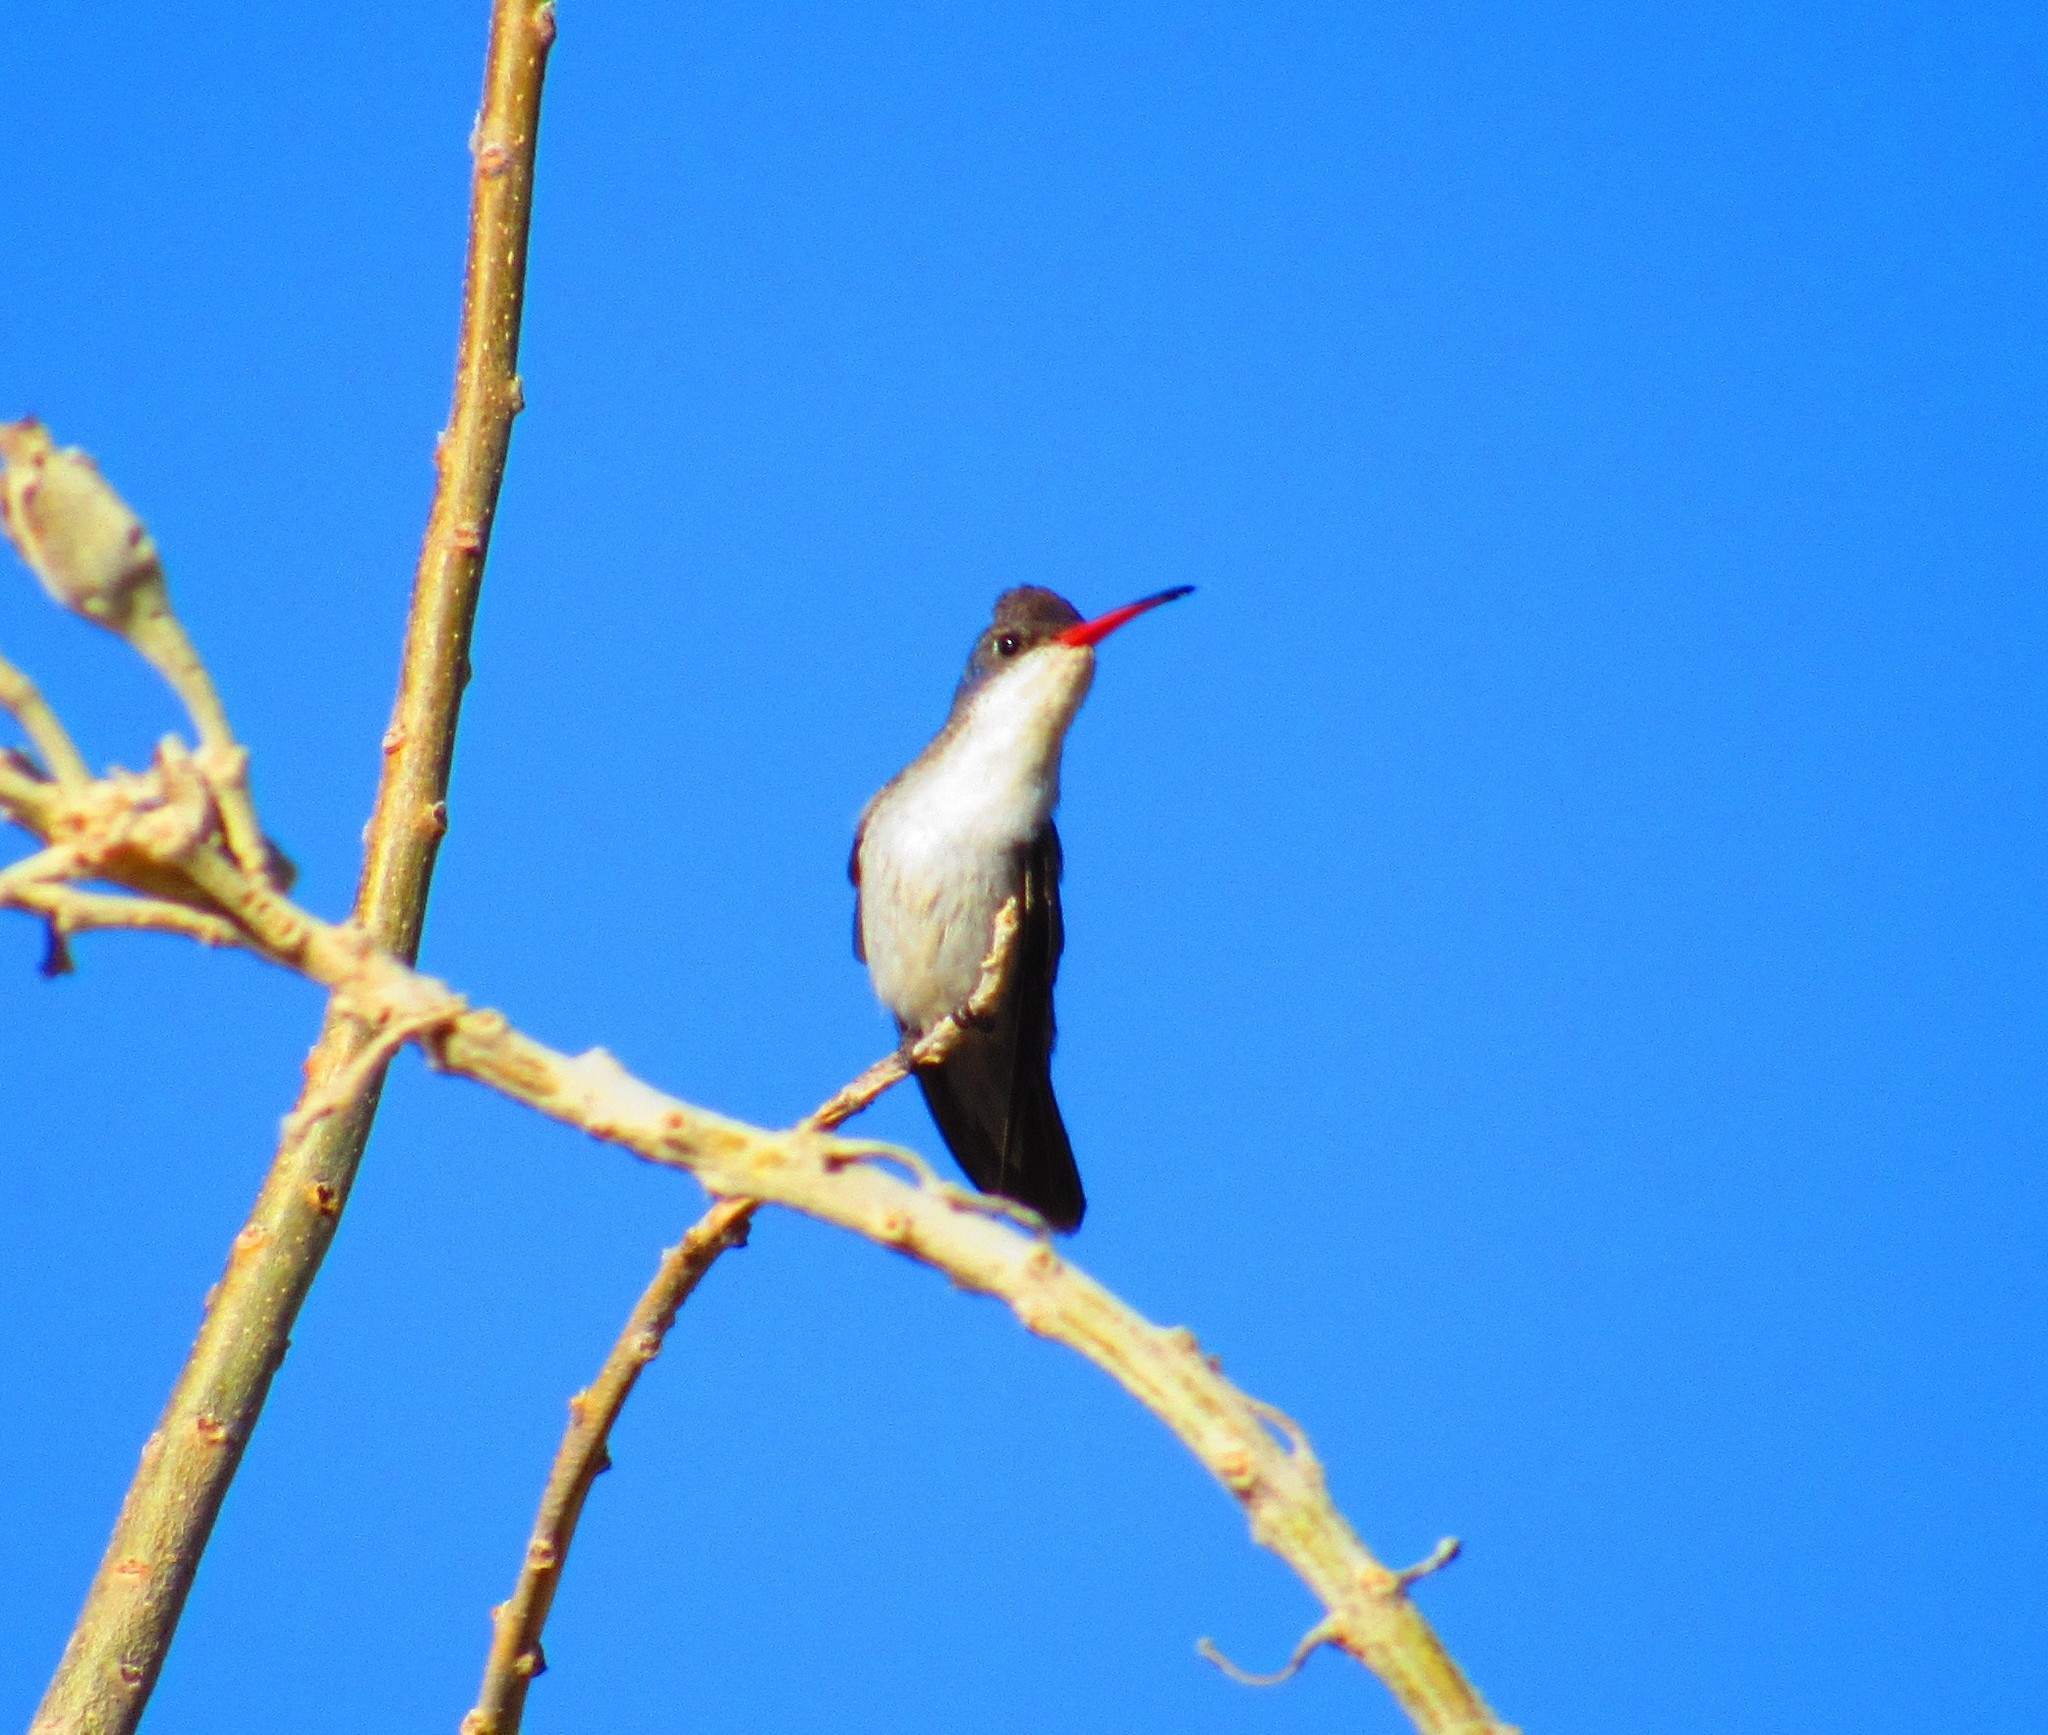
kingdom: Animalia
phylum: Chordata
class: Aves
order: Apodiformes
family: Trochilidae
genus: Leucolia
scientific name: Leucolia violiceps
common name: Violet-crowned hummingbird
